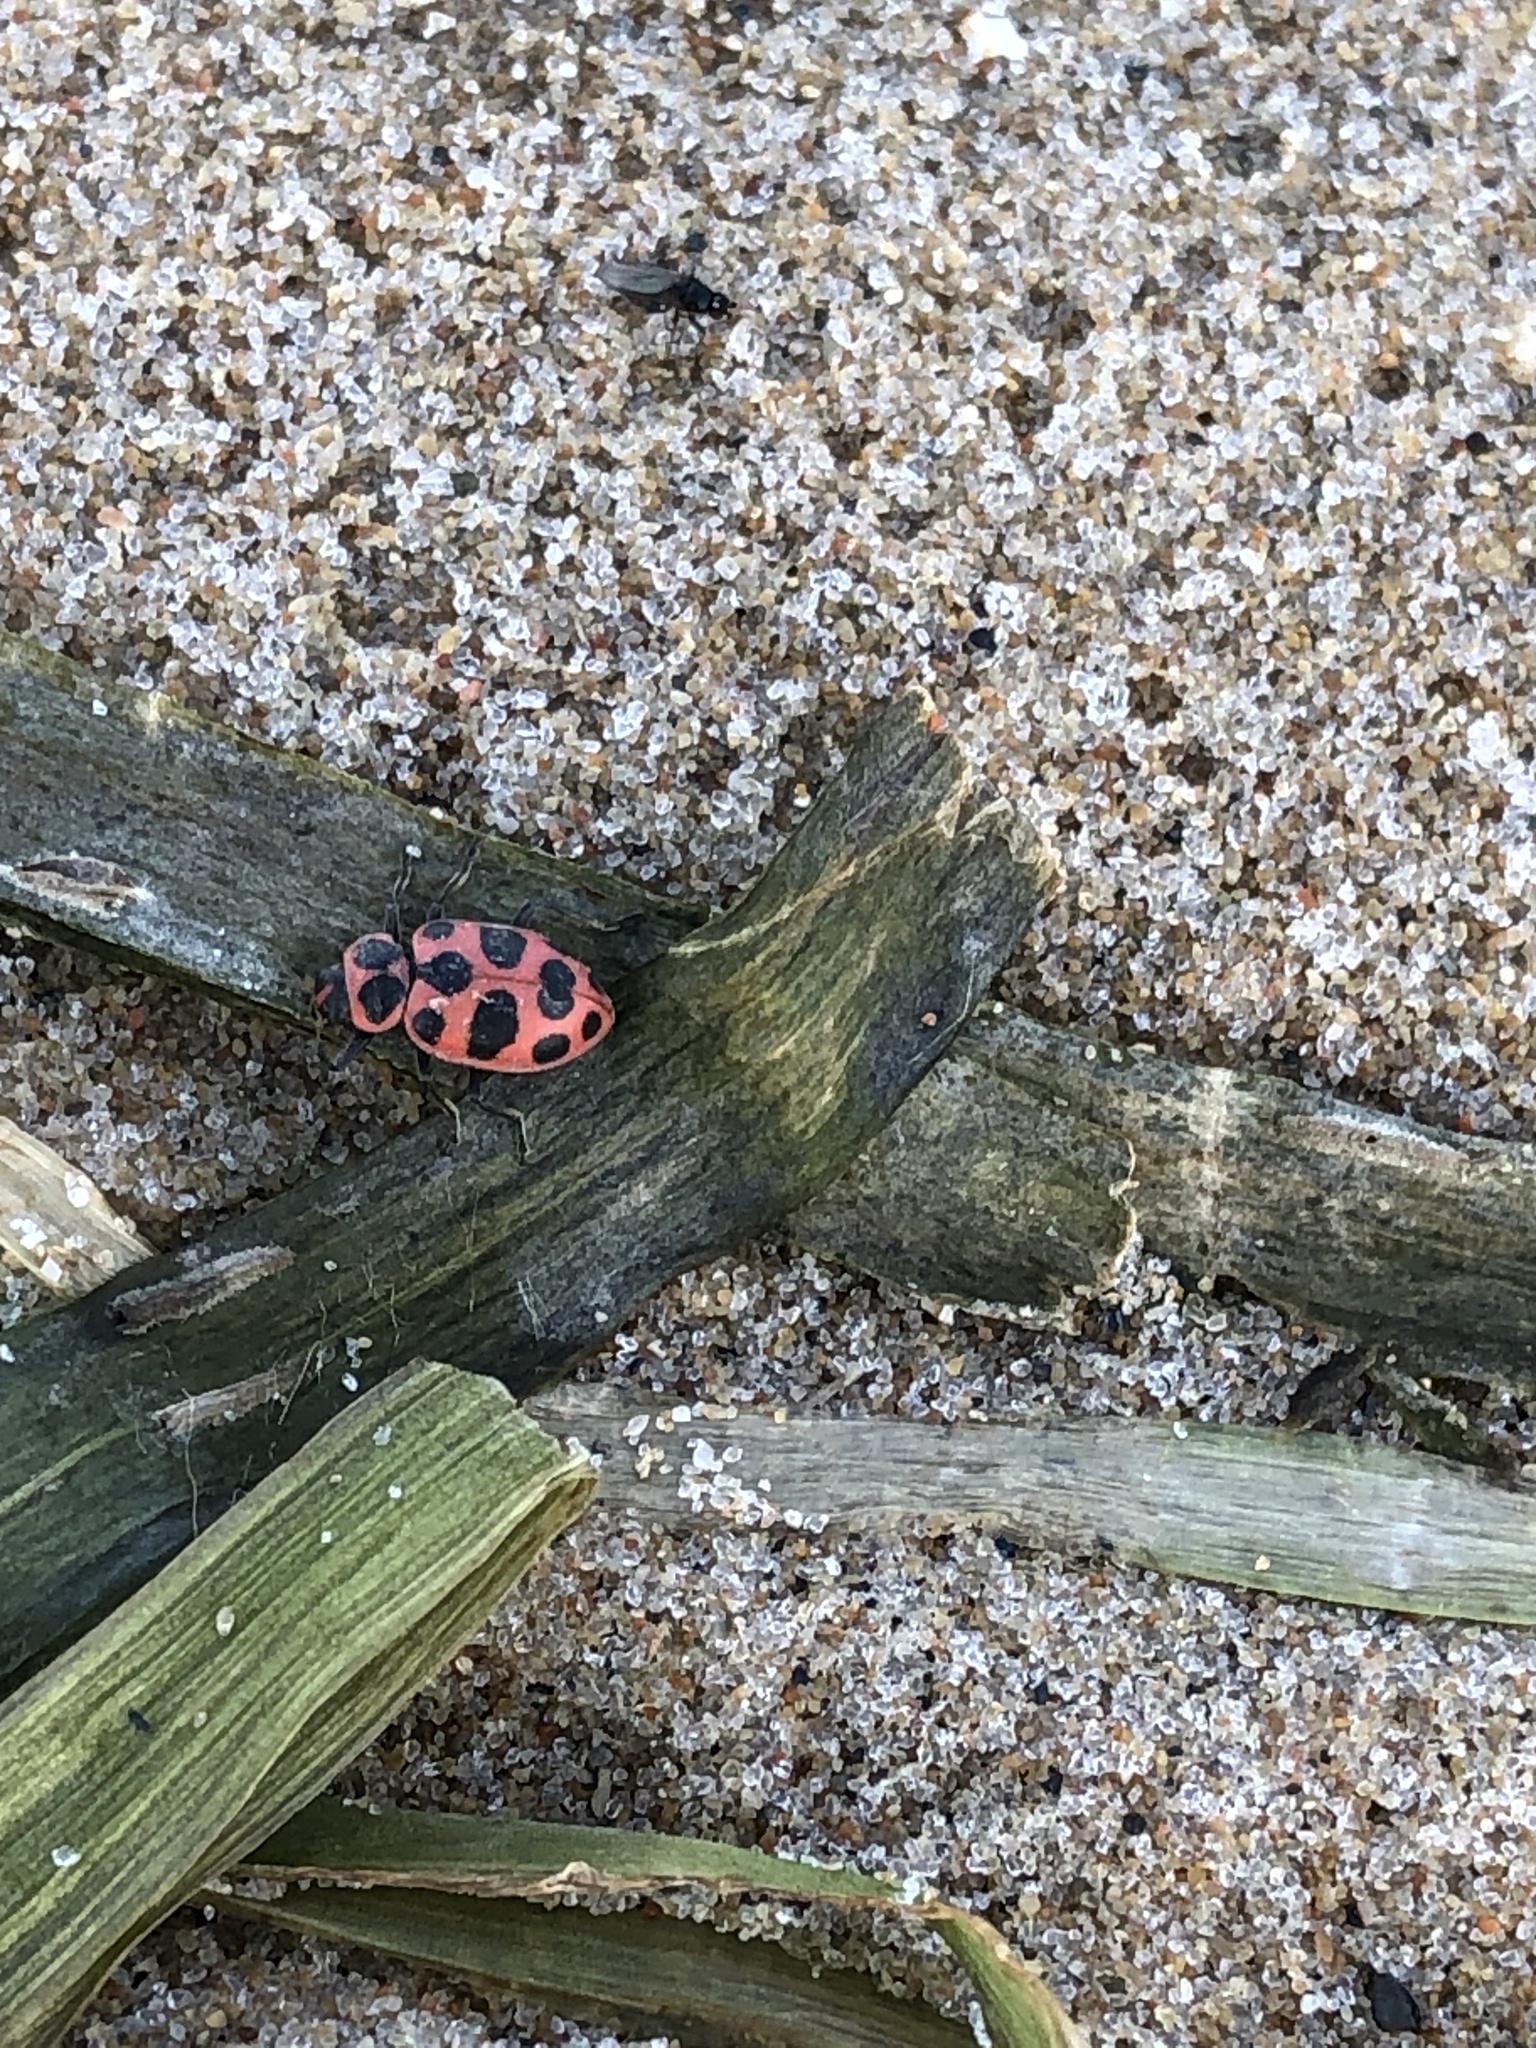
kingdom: Animalia
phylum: Arthropoda
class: Insecta
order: Coleoptera
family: Coccinellidae
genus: Coleomegilla
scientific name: Coleomegilla maculata
